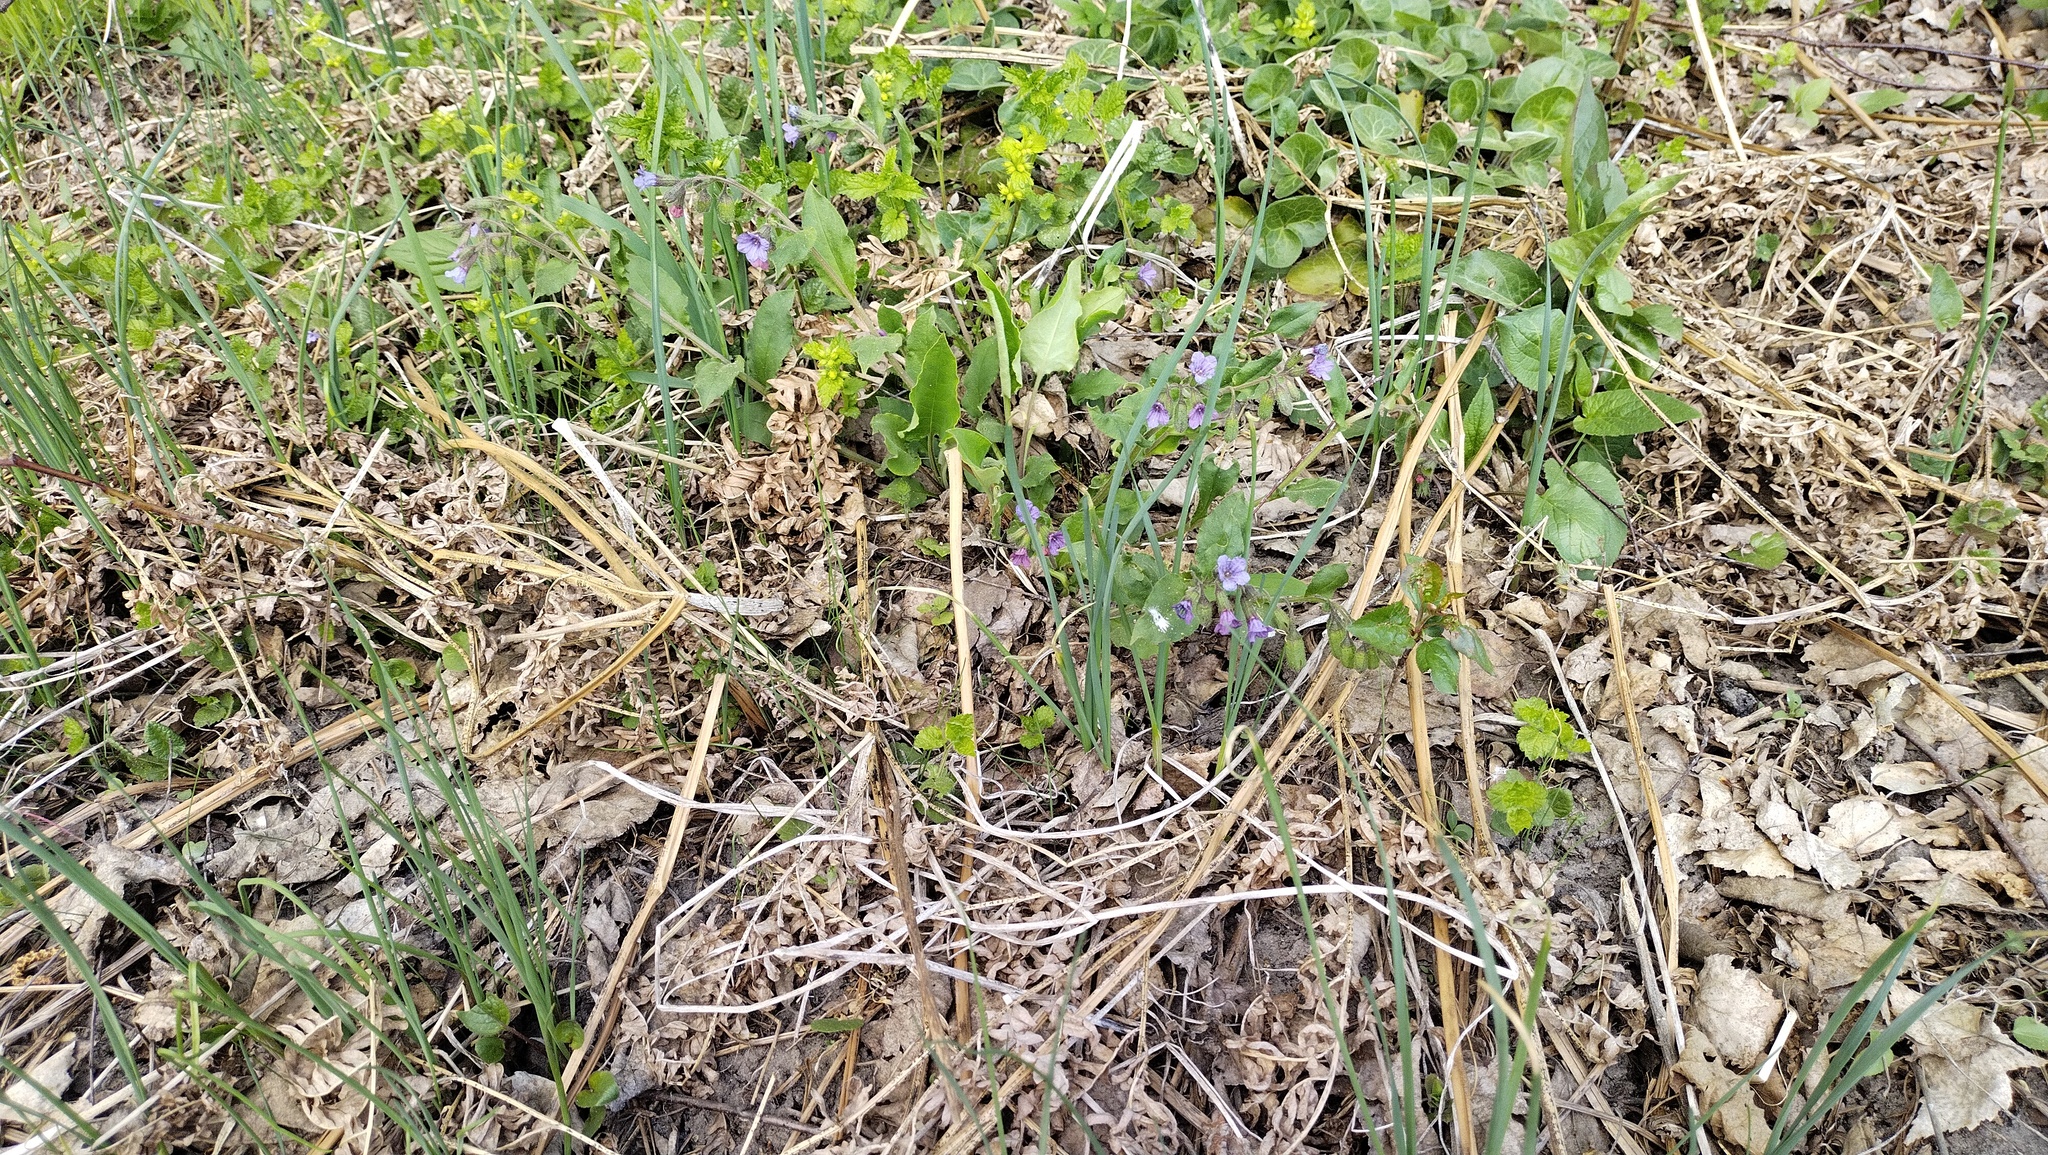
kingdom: Plantae
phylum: Tracheophyta
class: Magnoliopsida
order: Lamiales
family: Lamiaceae
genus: Glechoma
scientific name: Glechoma hederacea
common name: Ground ivy
